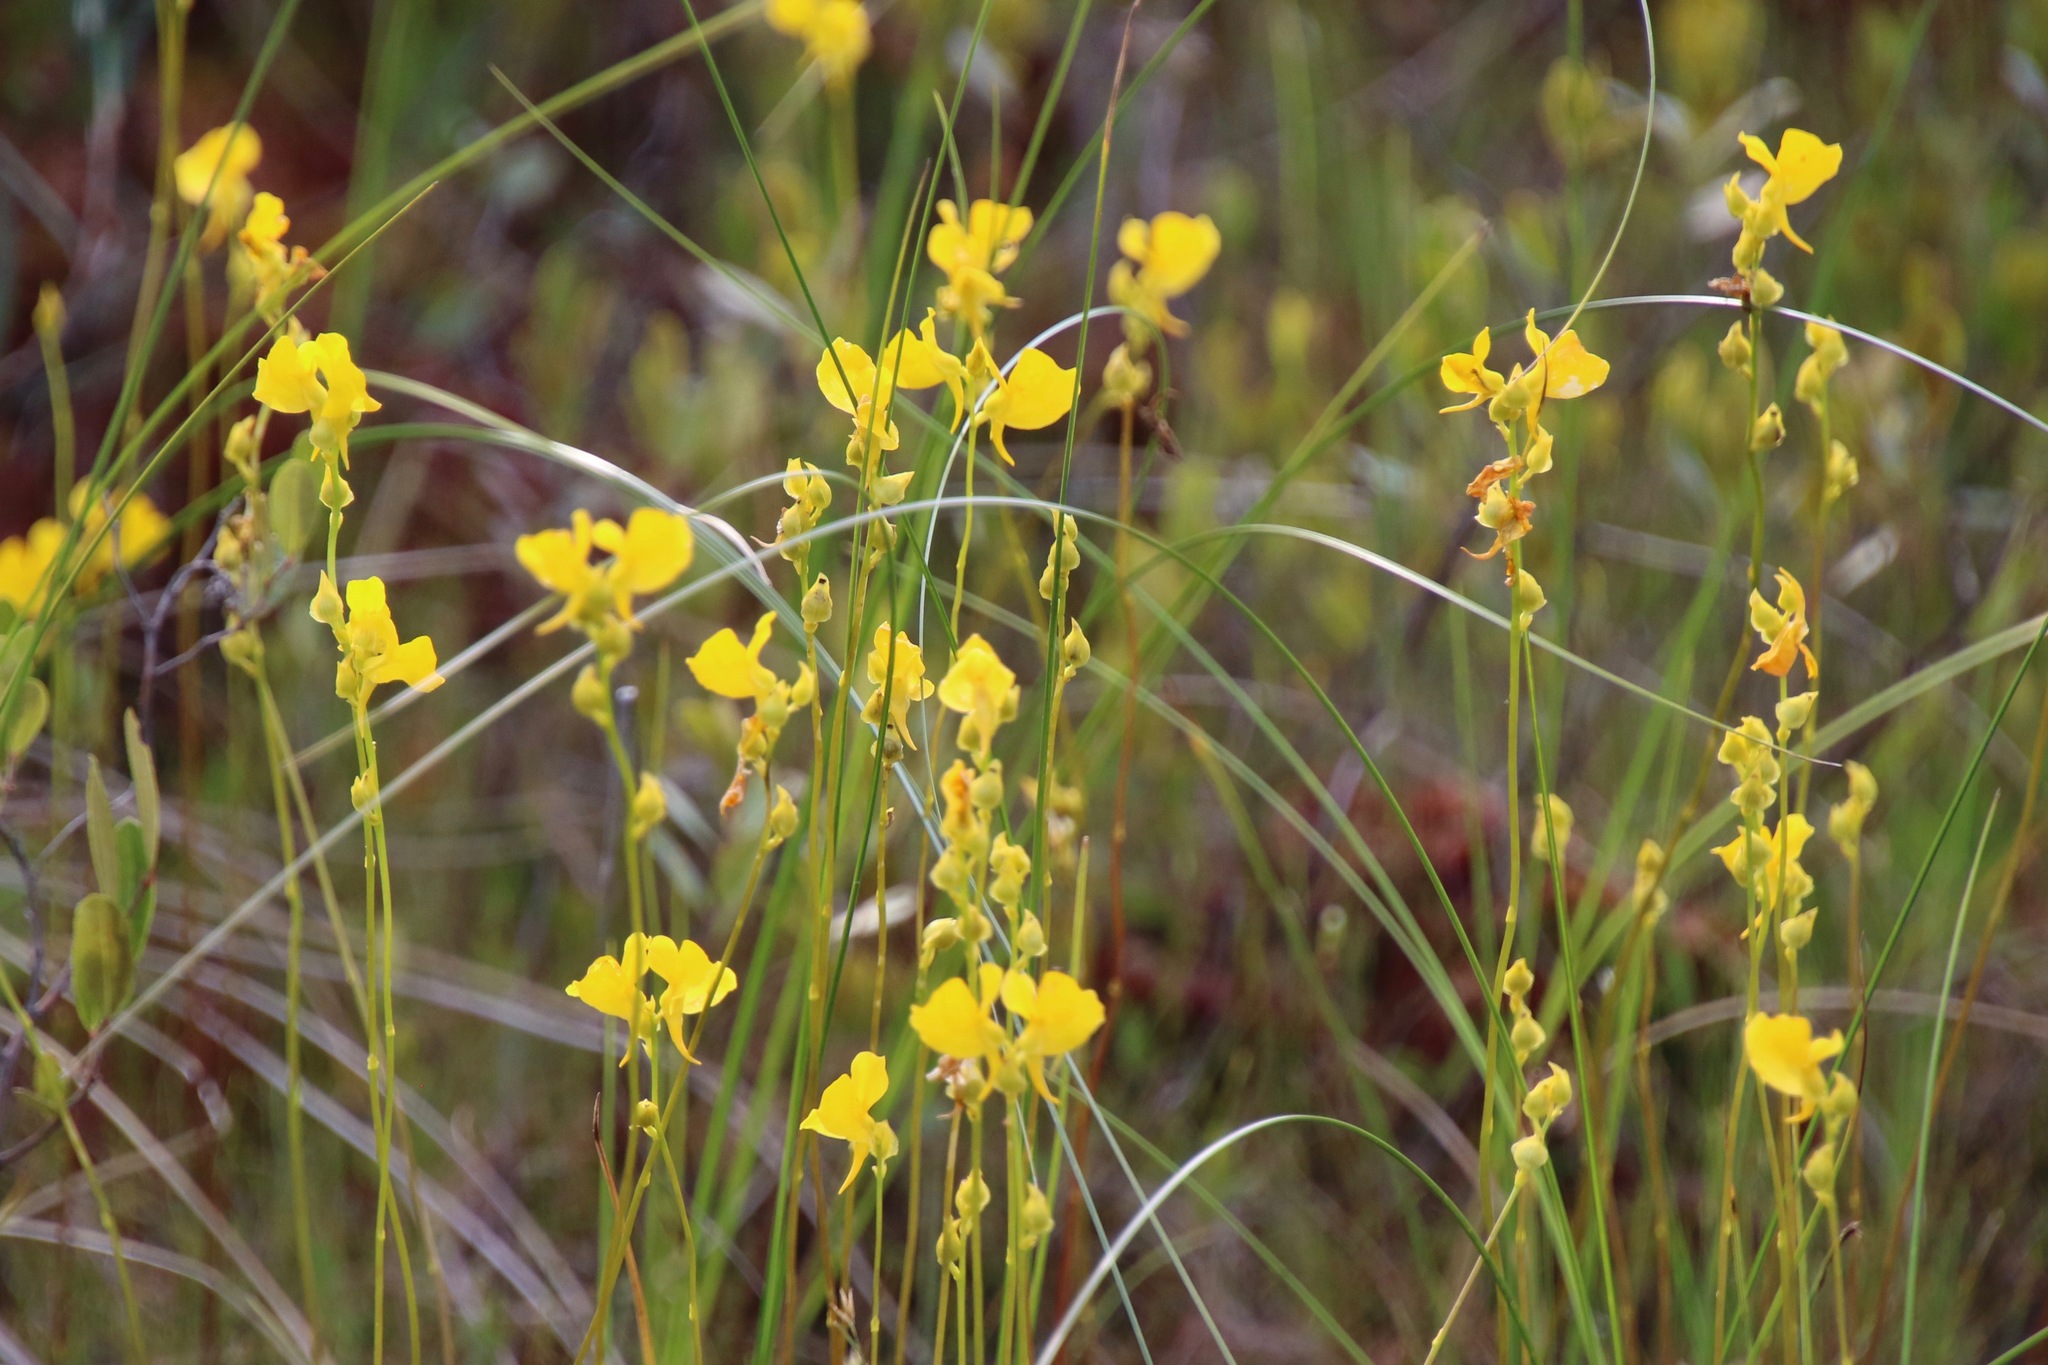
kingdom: Plantae
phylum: Tracheophyta
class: Magnoliopsida
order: Lamiales
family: Lentibulariaceae
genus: Utricularia
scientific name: Utricularia cornuta
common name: Horned bladderwort
